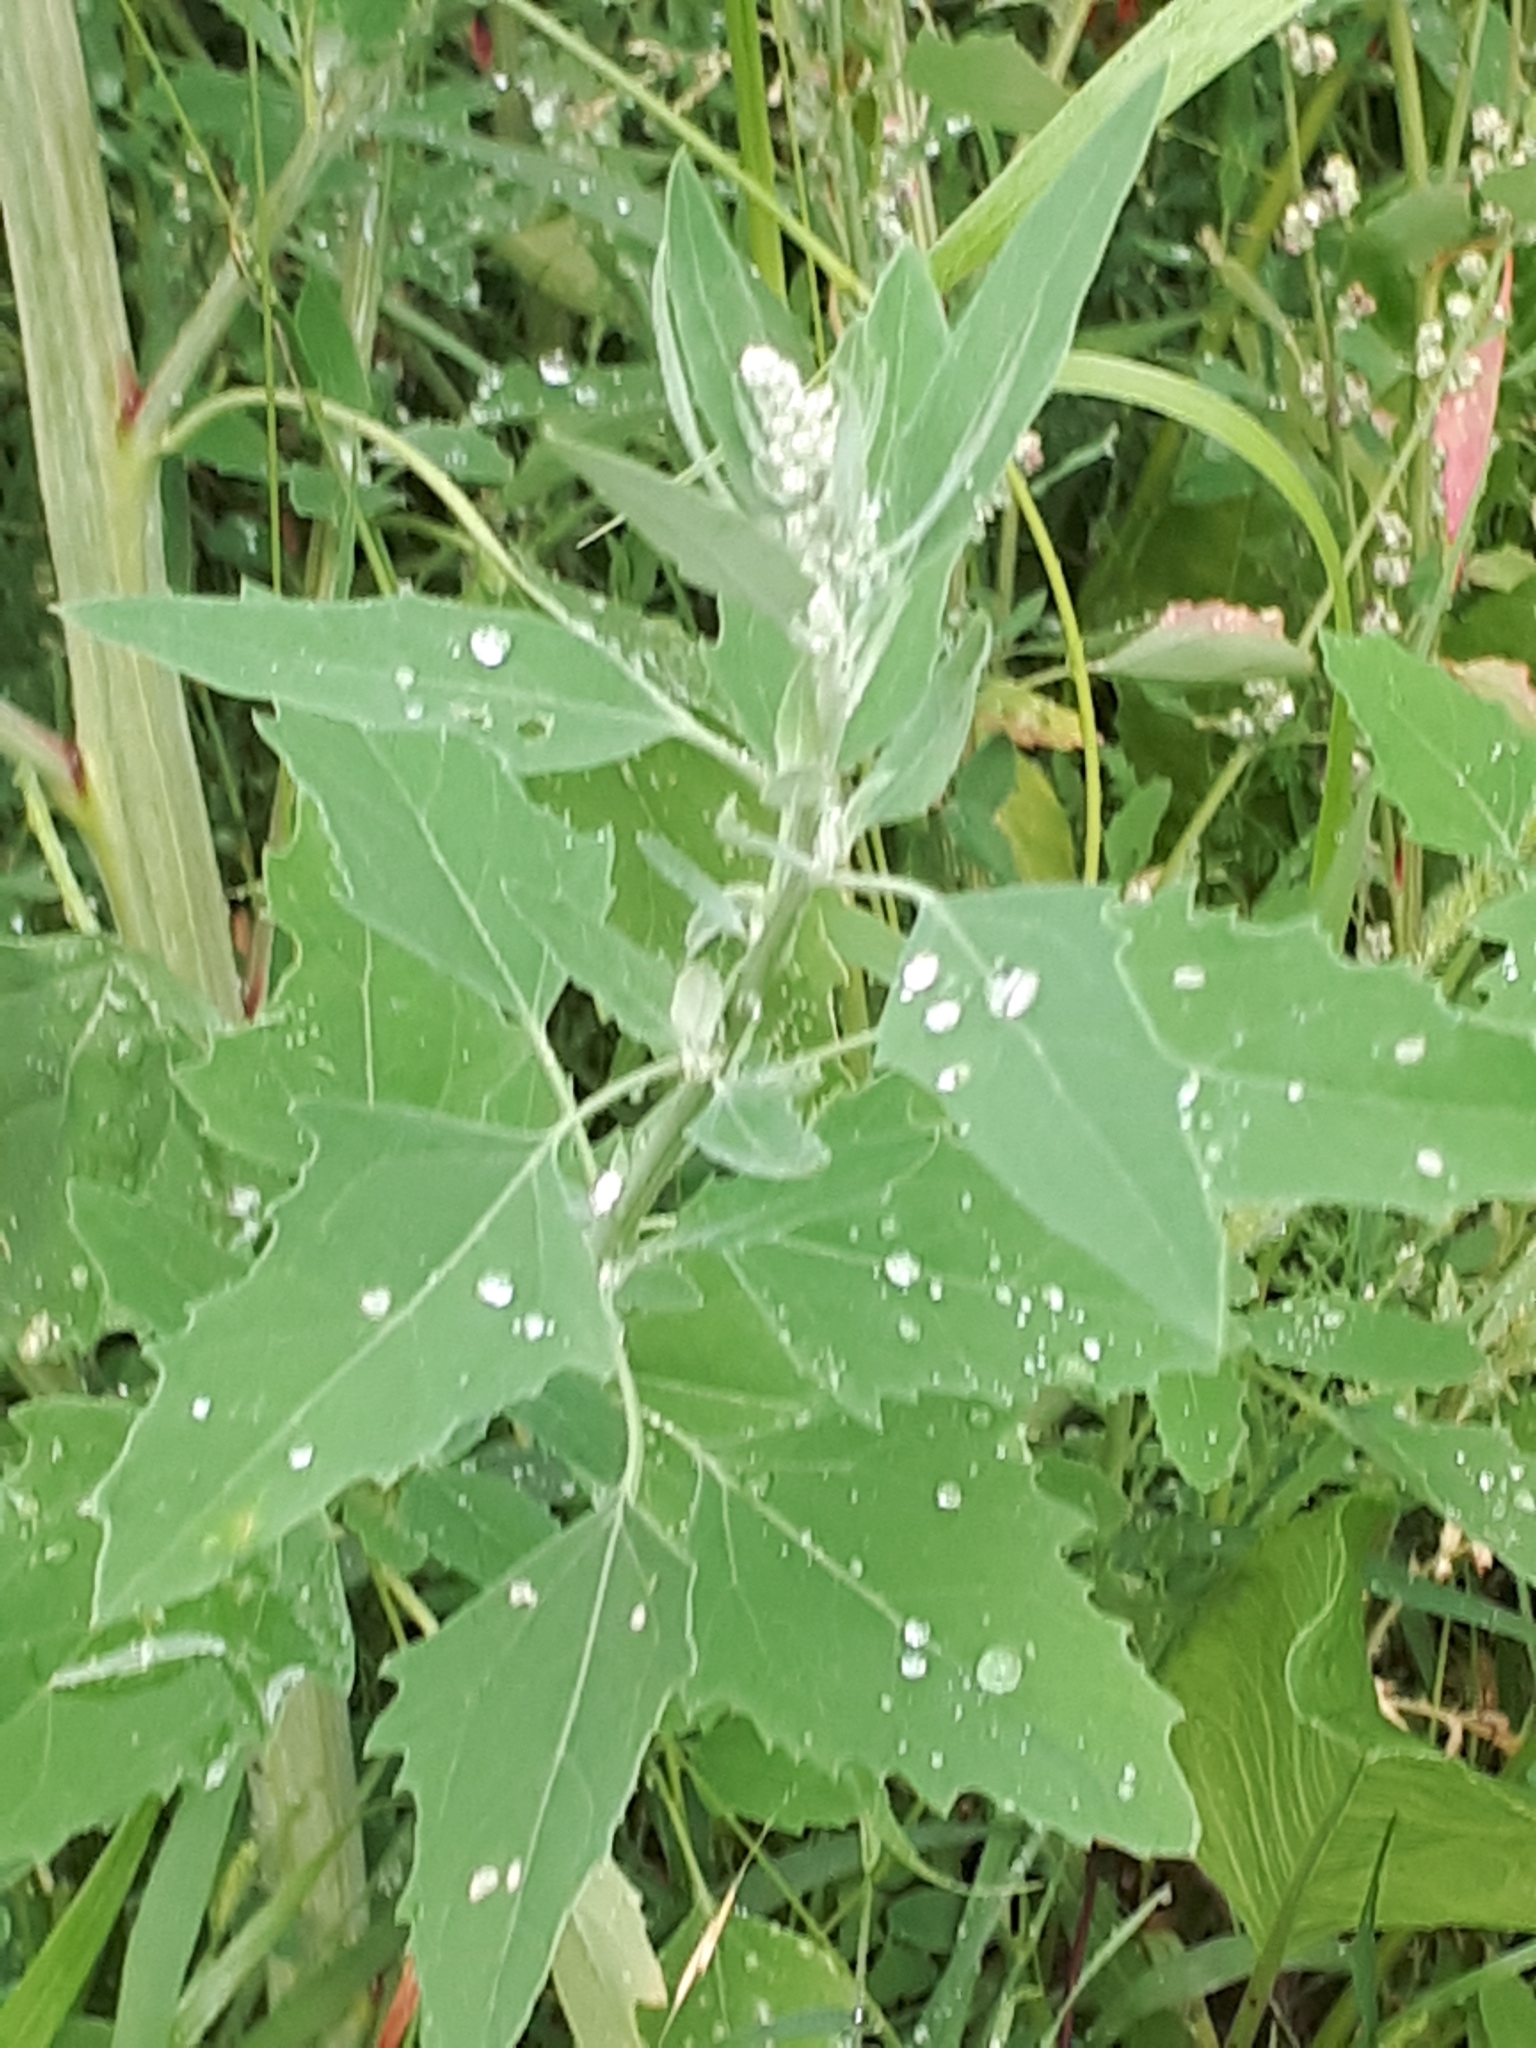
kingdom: Plantae
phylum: Tracheophyta
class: Magnoliopsida
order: Caryophyllales
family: Amaranthaceae
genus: Chenopodium
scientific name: Chenopodium album
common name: Fat-hen
